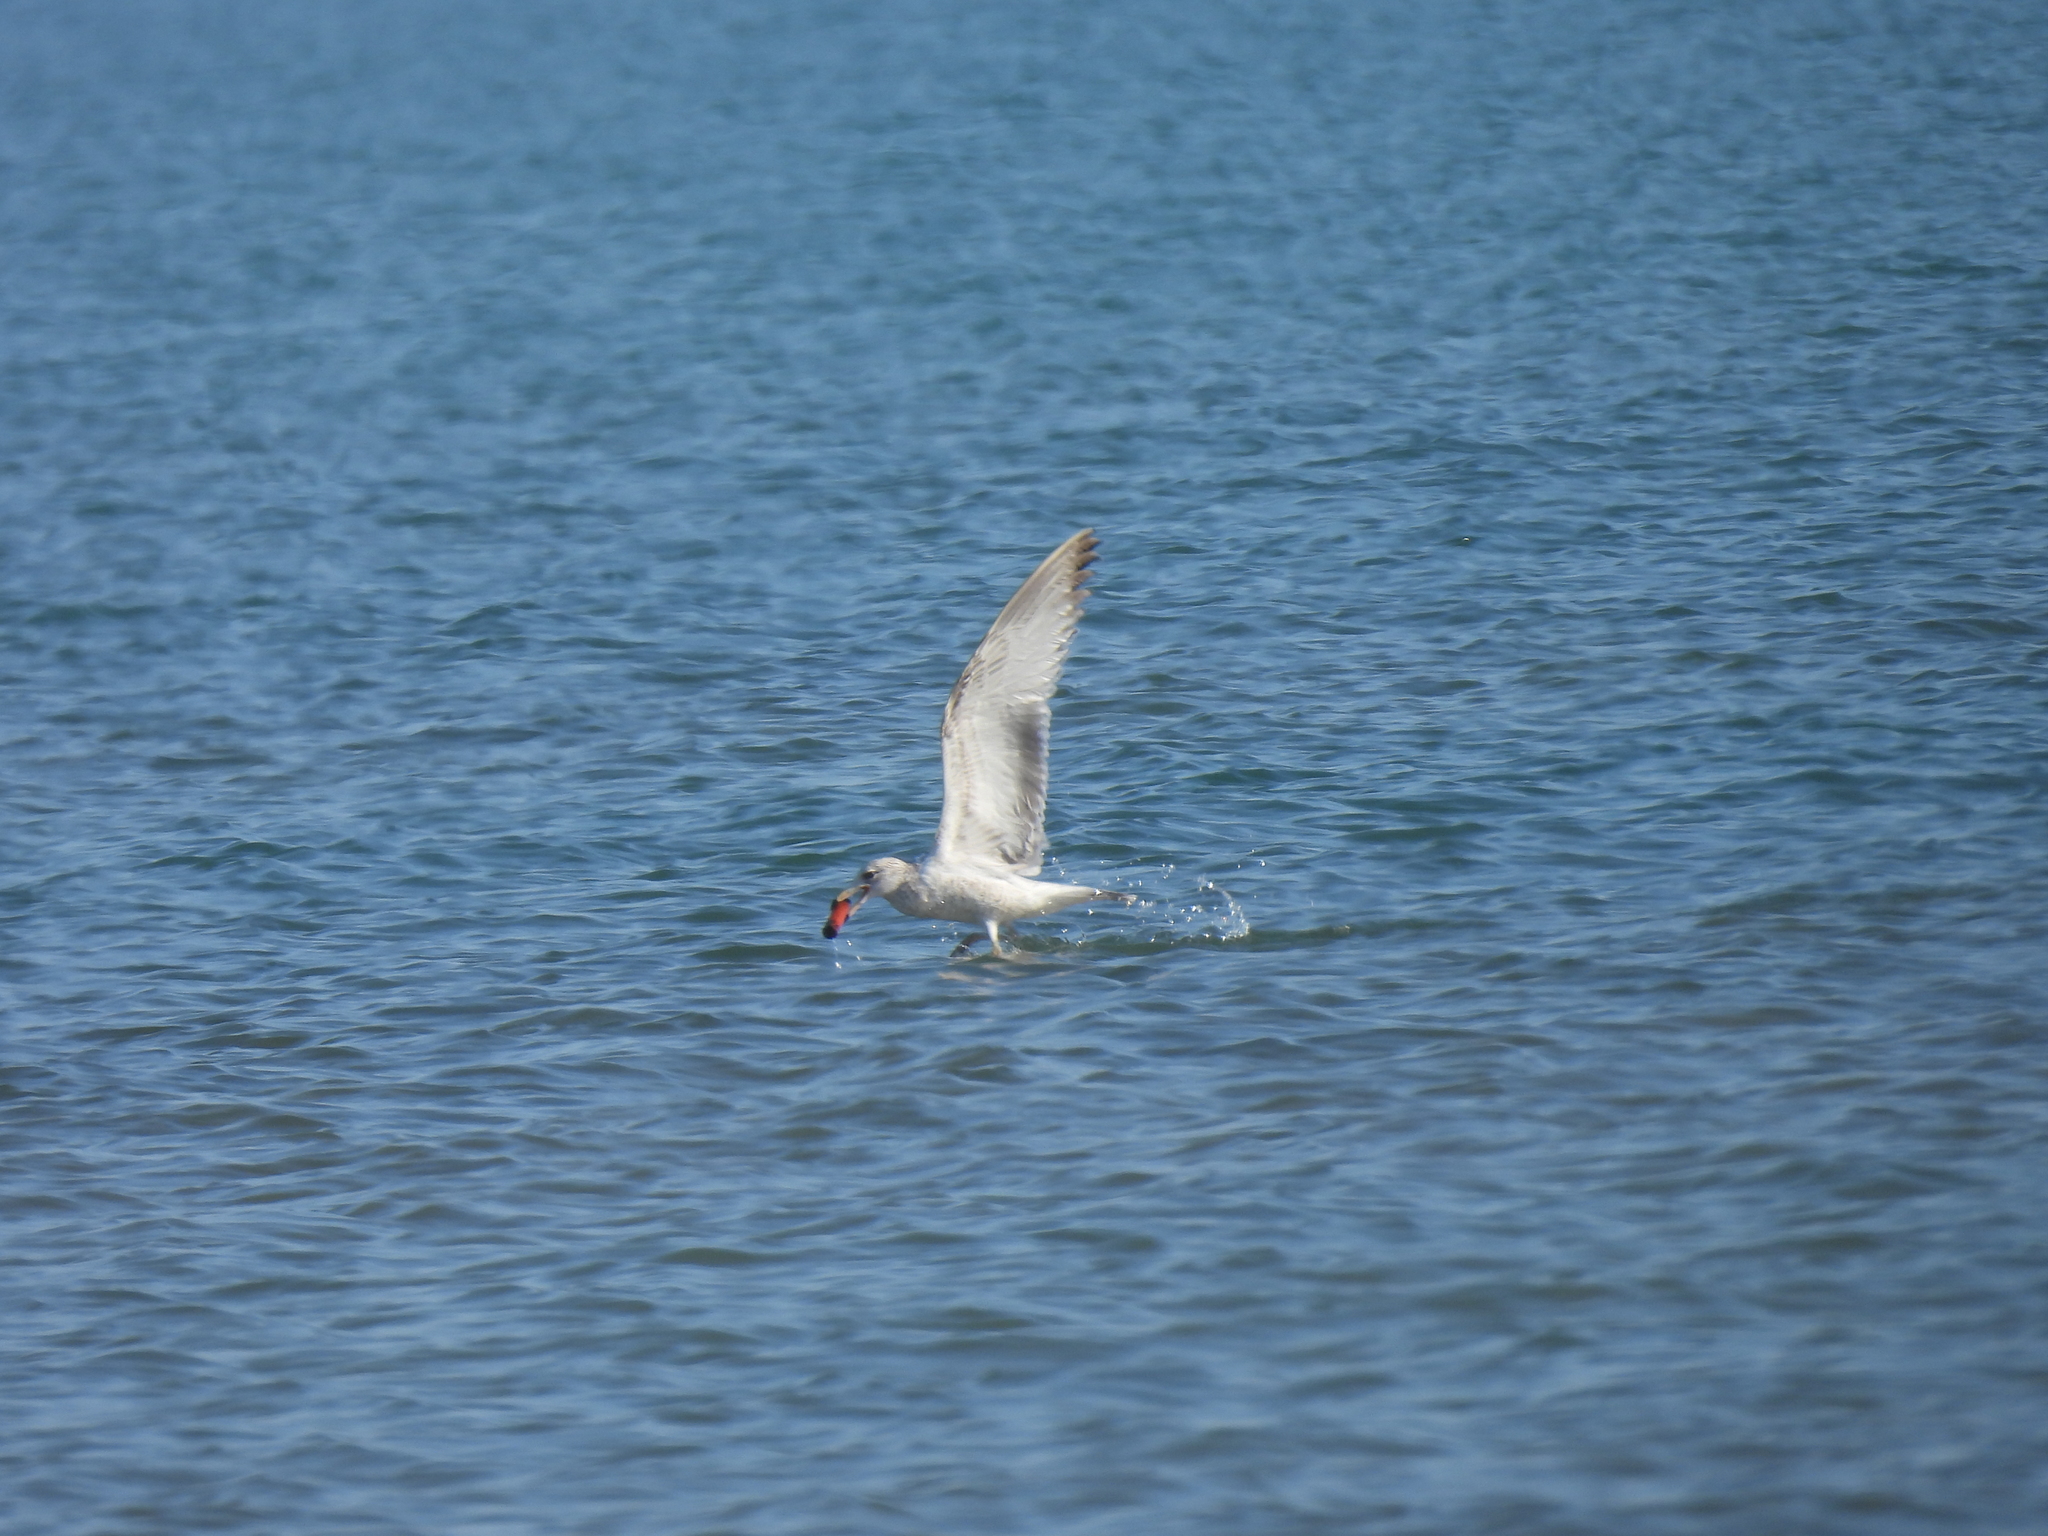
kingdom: Animalia
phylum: Chordata
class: Aves
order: Charadriiformes
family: Laridae
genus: Larus
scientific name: Larus smithsonianus
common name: American herring gull
